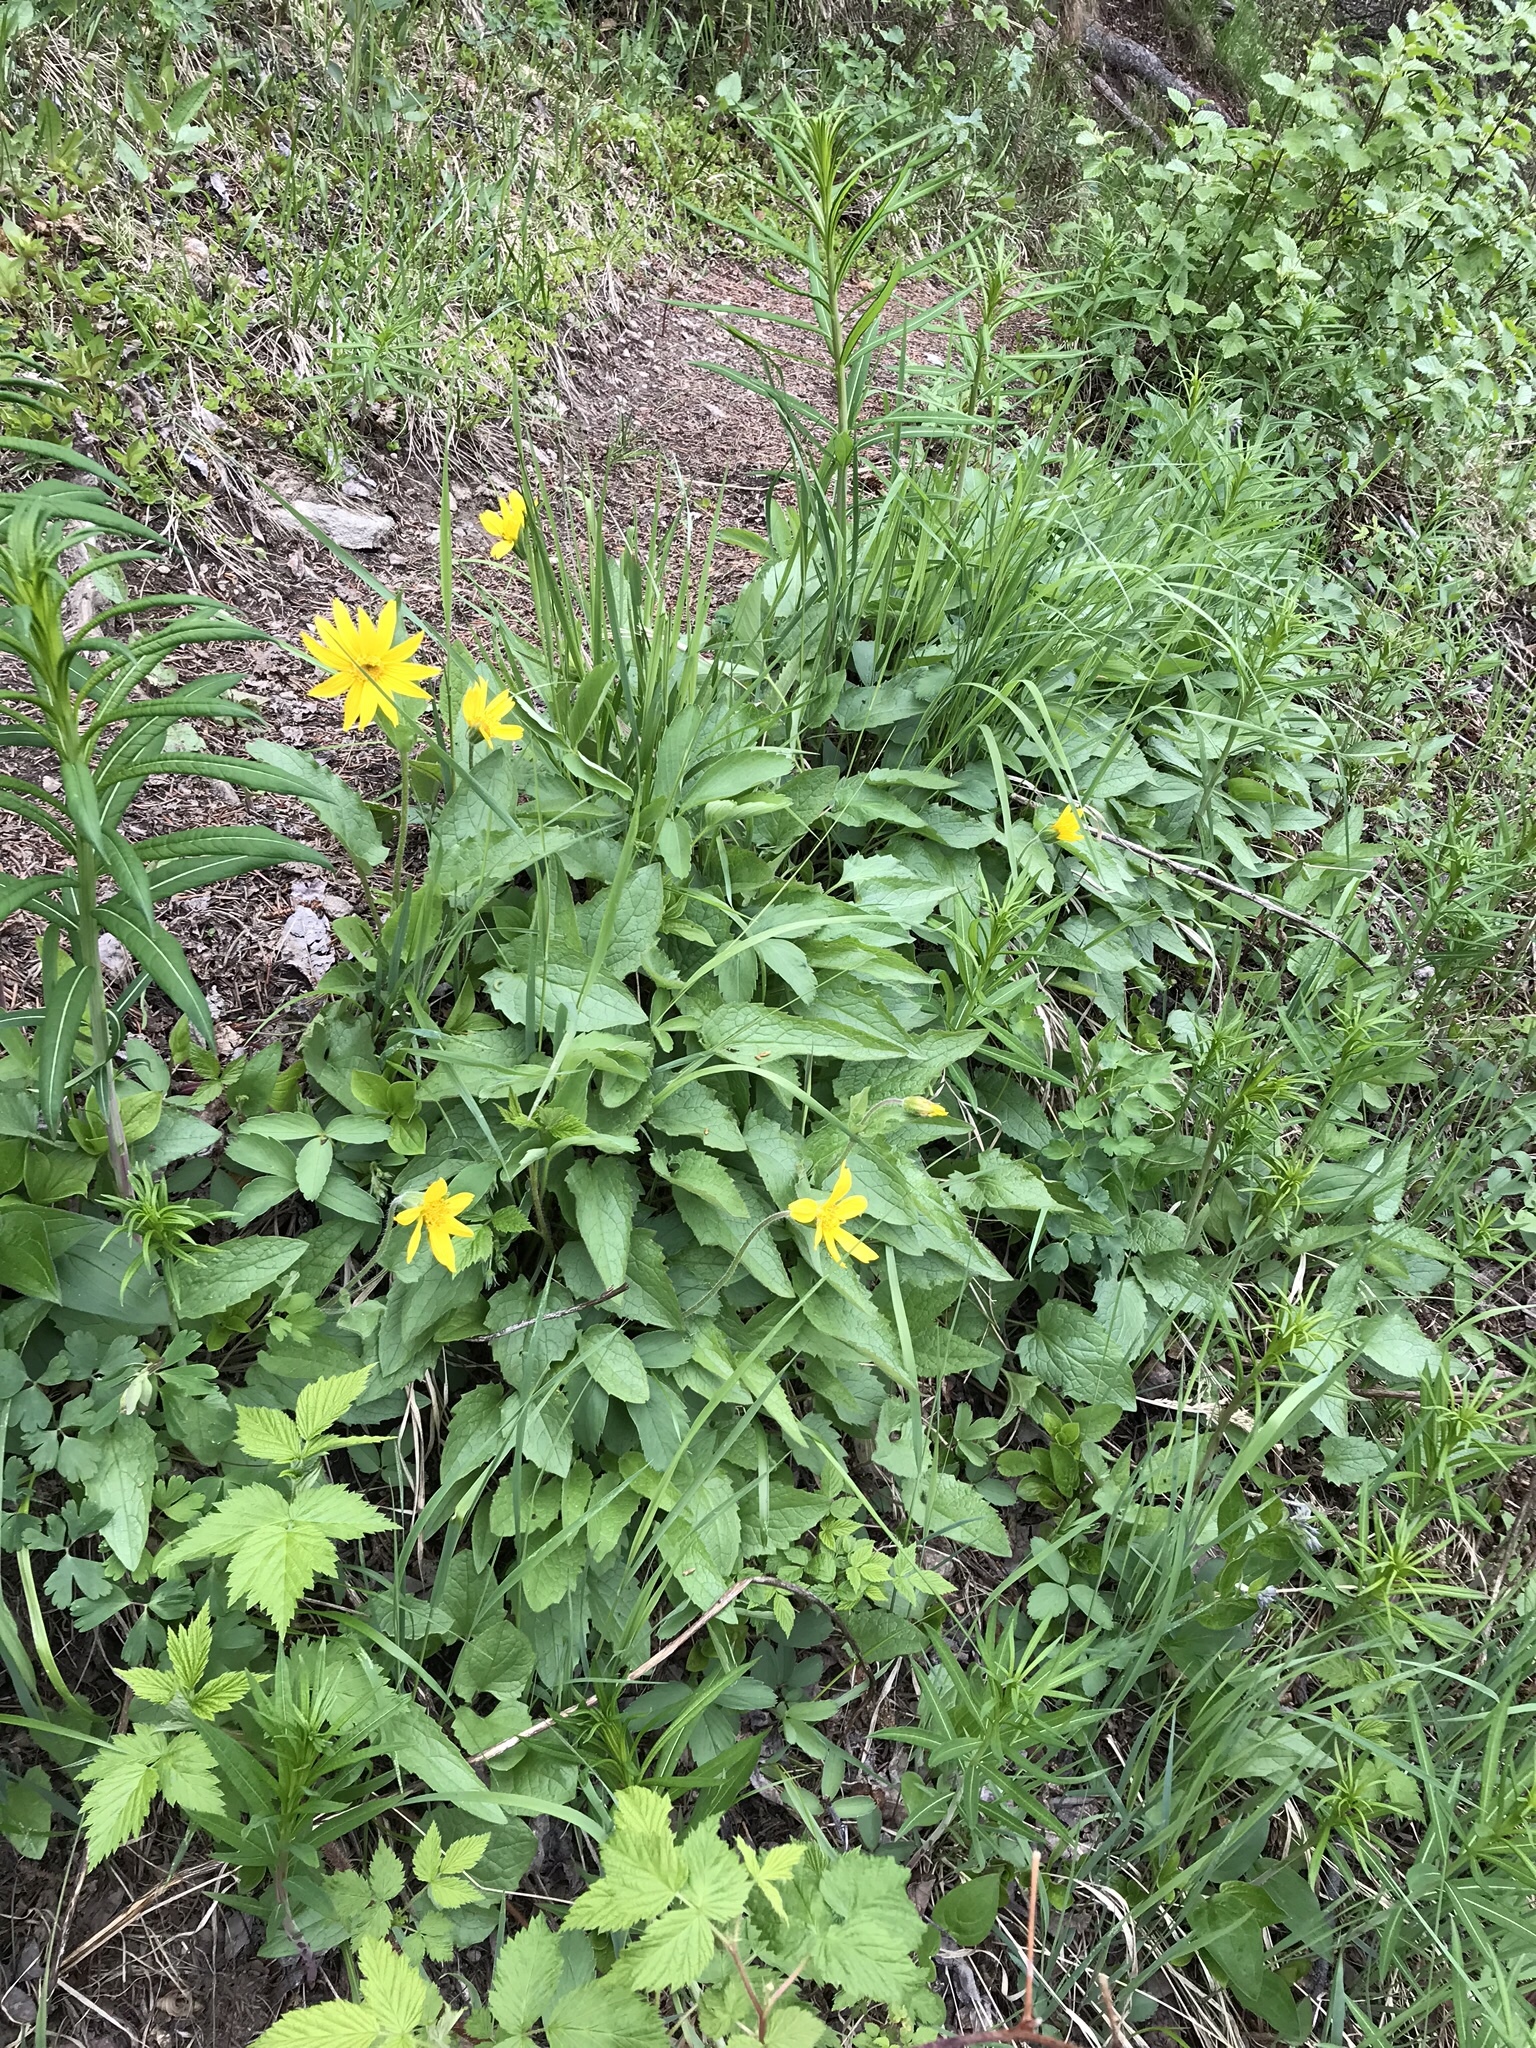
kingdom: Plantae
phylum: Tracheophyta
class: Magnoliopsida
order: Asterales
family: Asteraceae
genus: Arnica
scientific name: Arnica cordifolia
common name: Heart-leaf arnica
